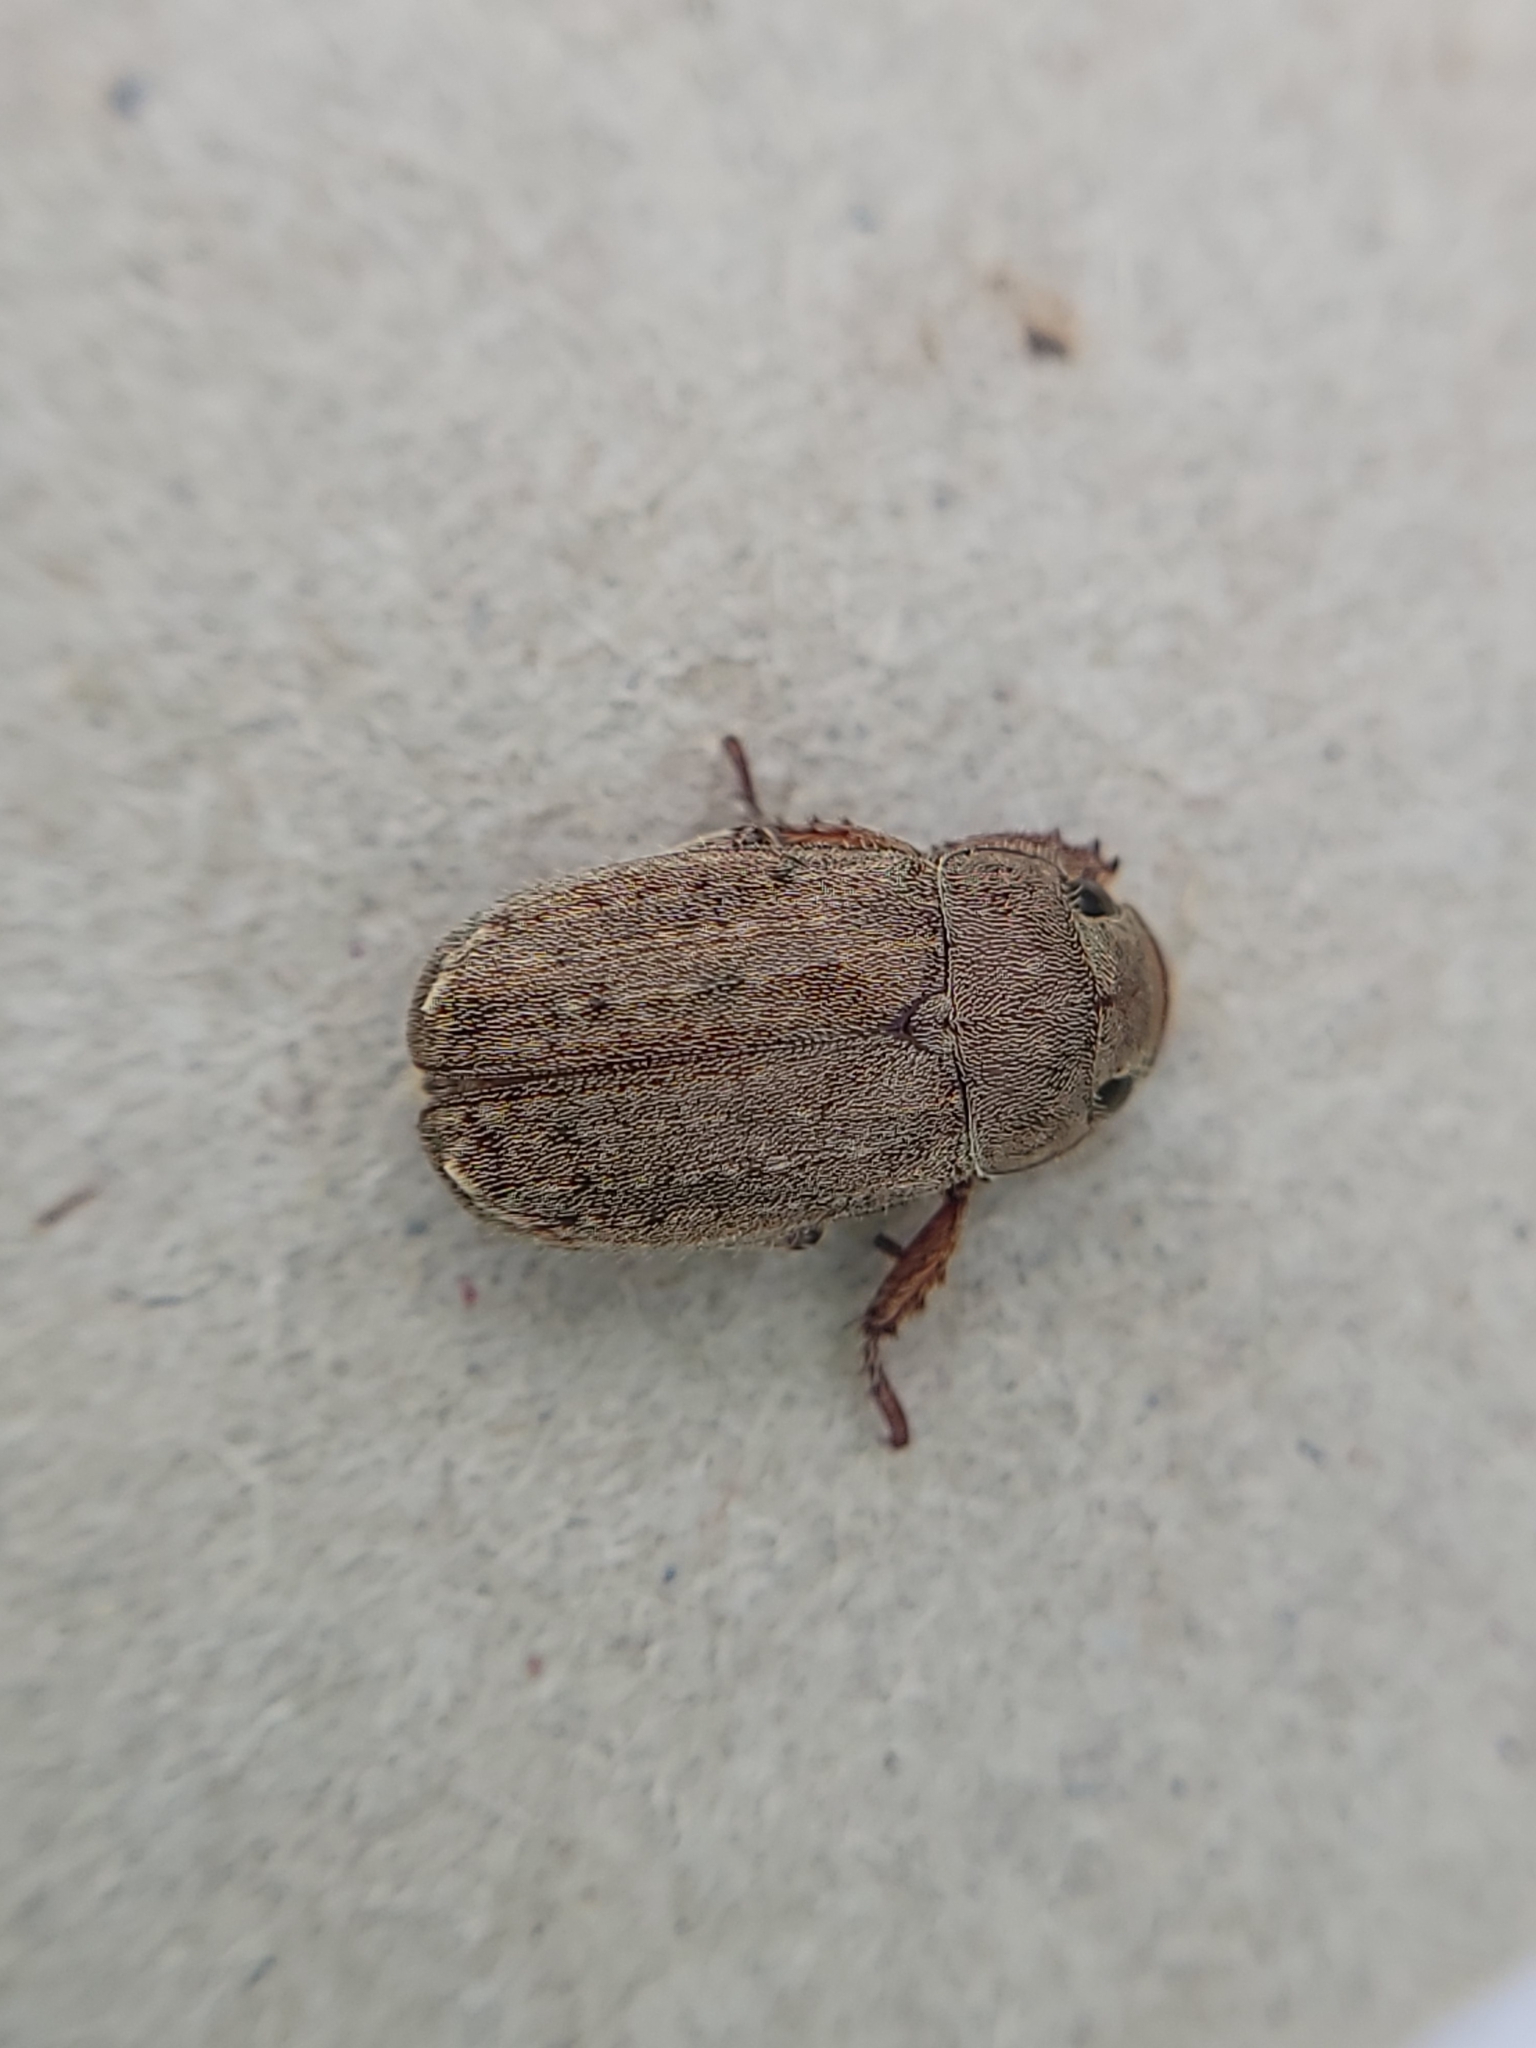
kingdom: Animalia
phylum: Arthropoda
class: Insecta
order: Coleoptera
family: Scarabaeidae
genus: Adoretus
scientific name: Adoretus sinicus
